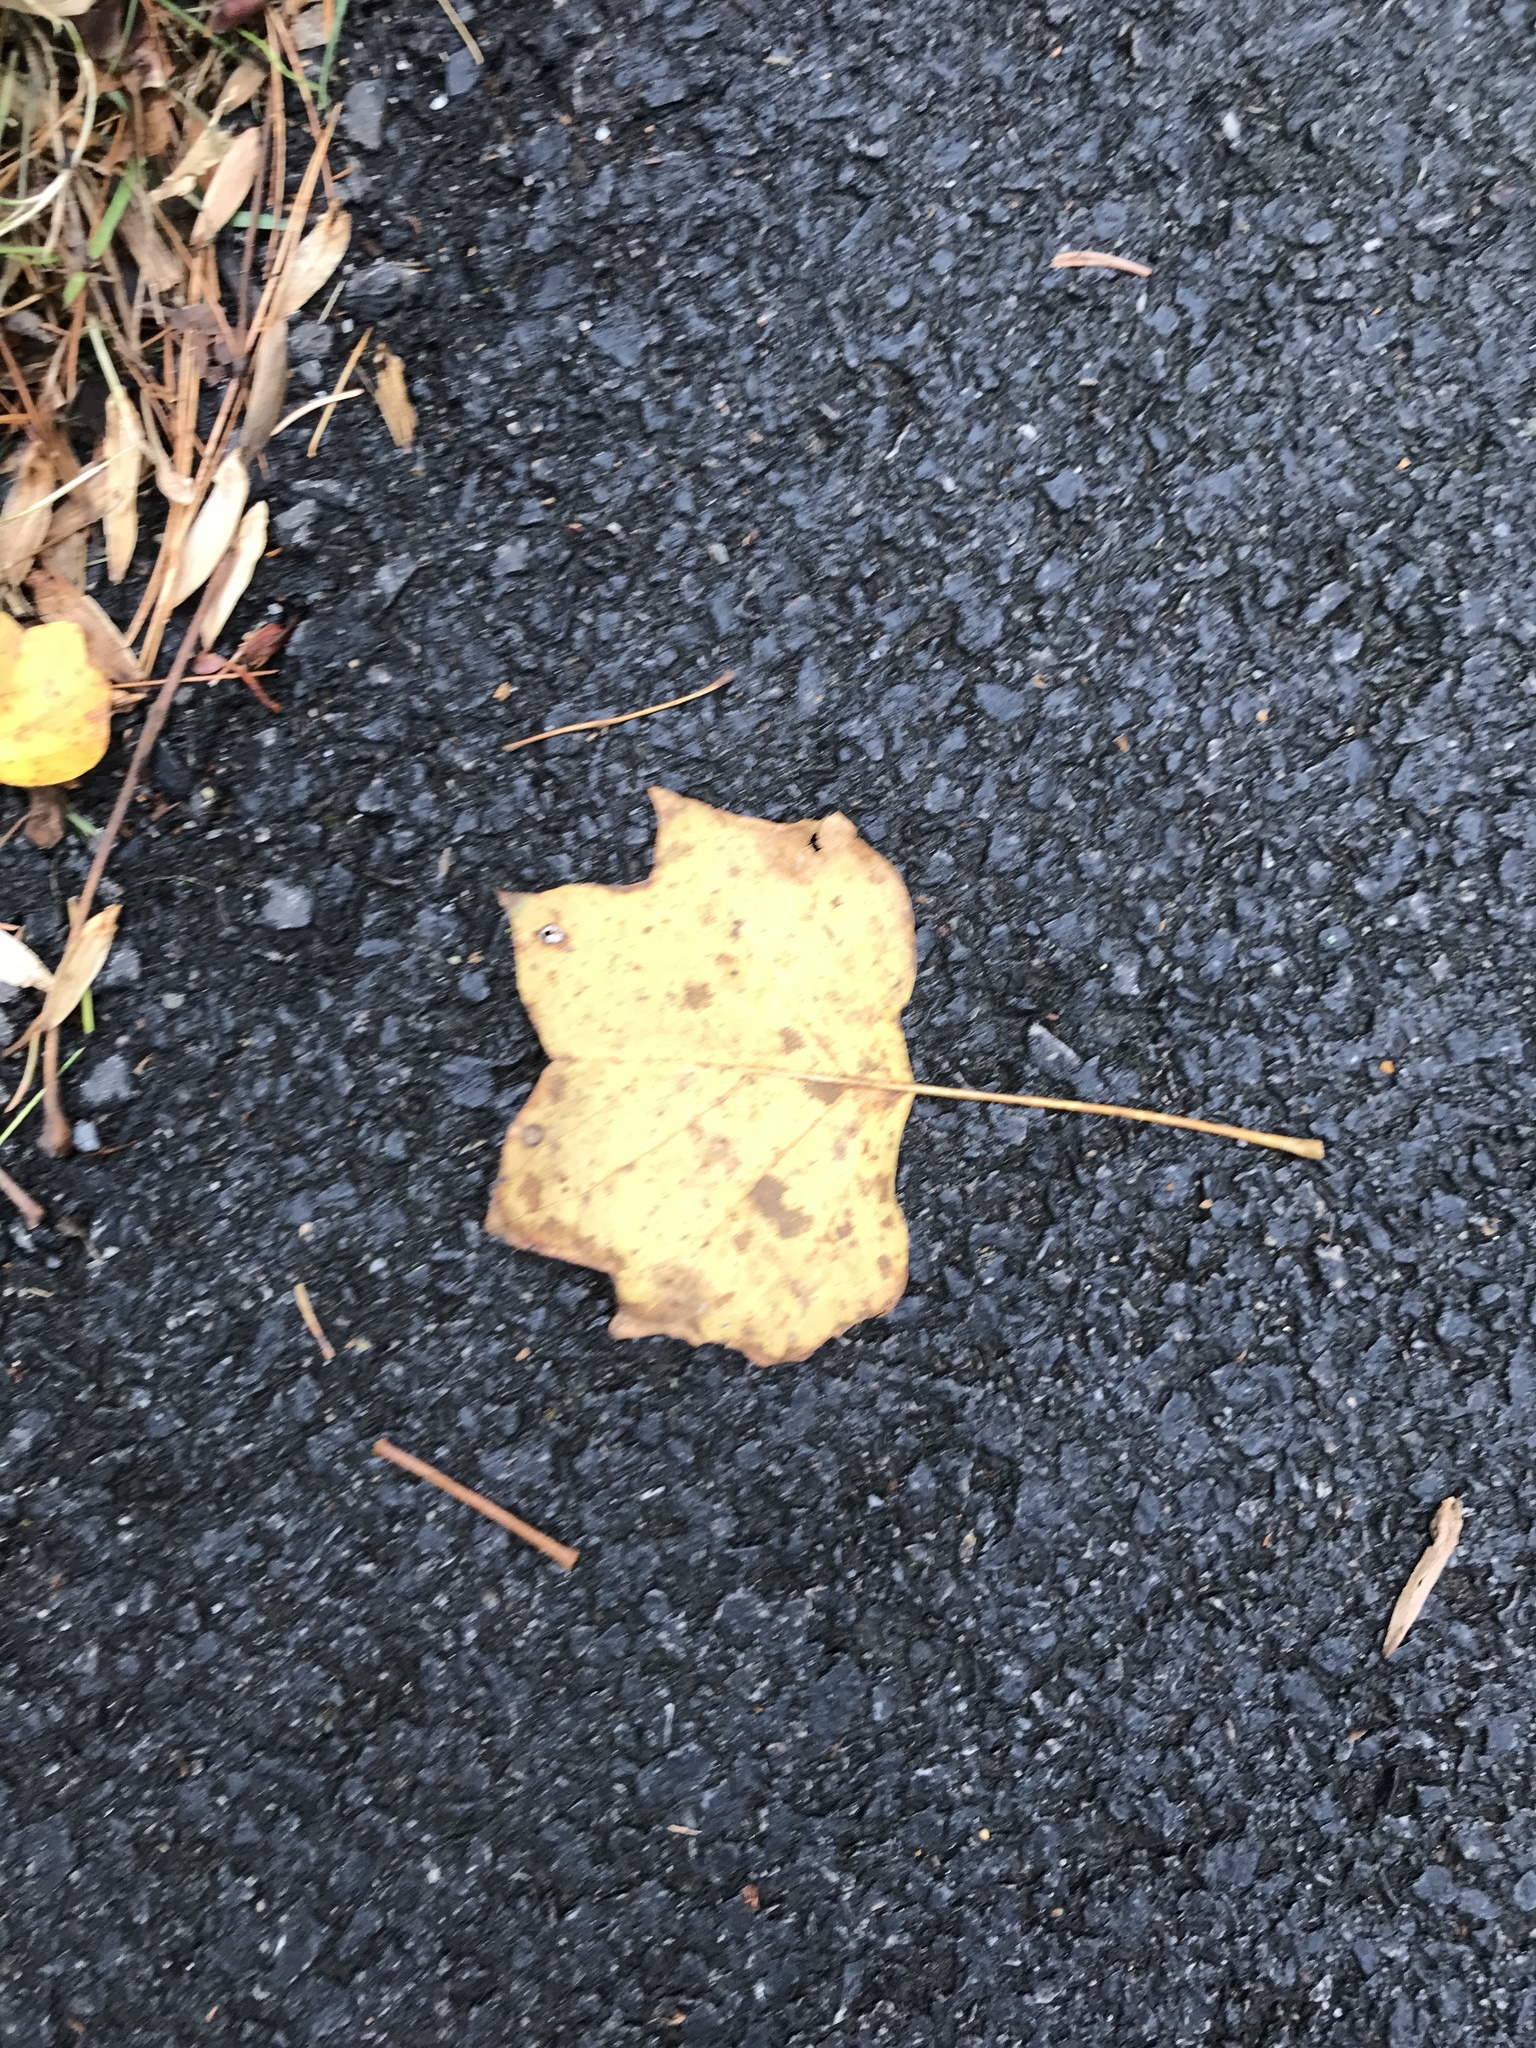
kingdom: Plantae
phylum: Tracheophyta
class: Magnoliopsida
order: Magnoliales
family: Magnoliaceae
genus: Liriodendron
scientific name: Liriodendron tulipifera
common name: Tulip tree
